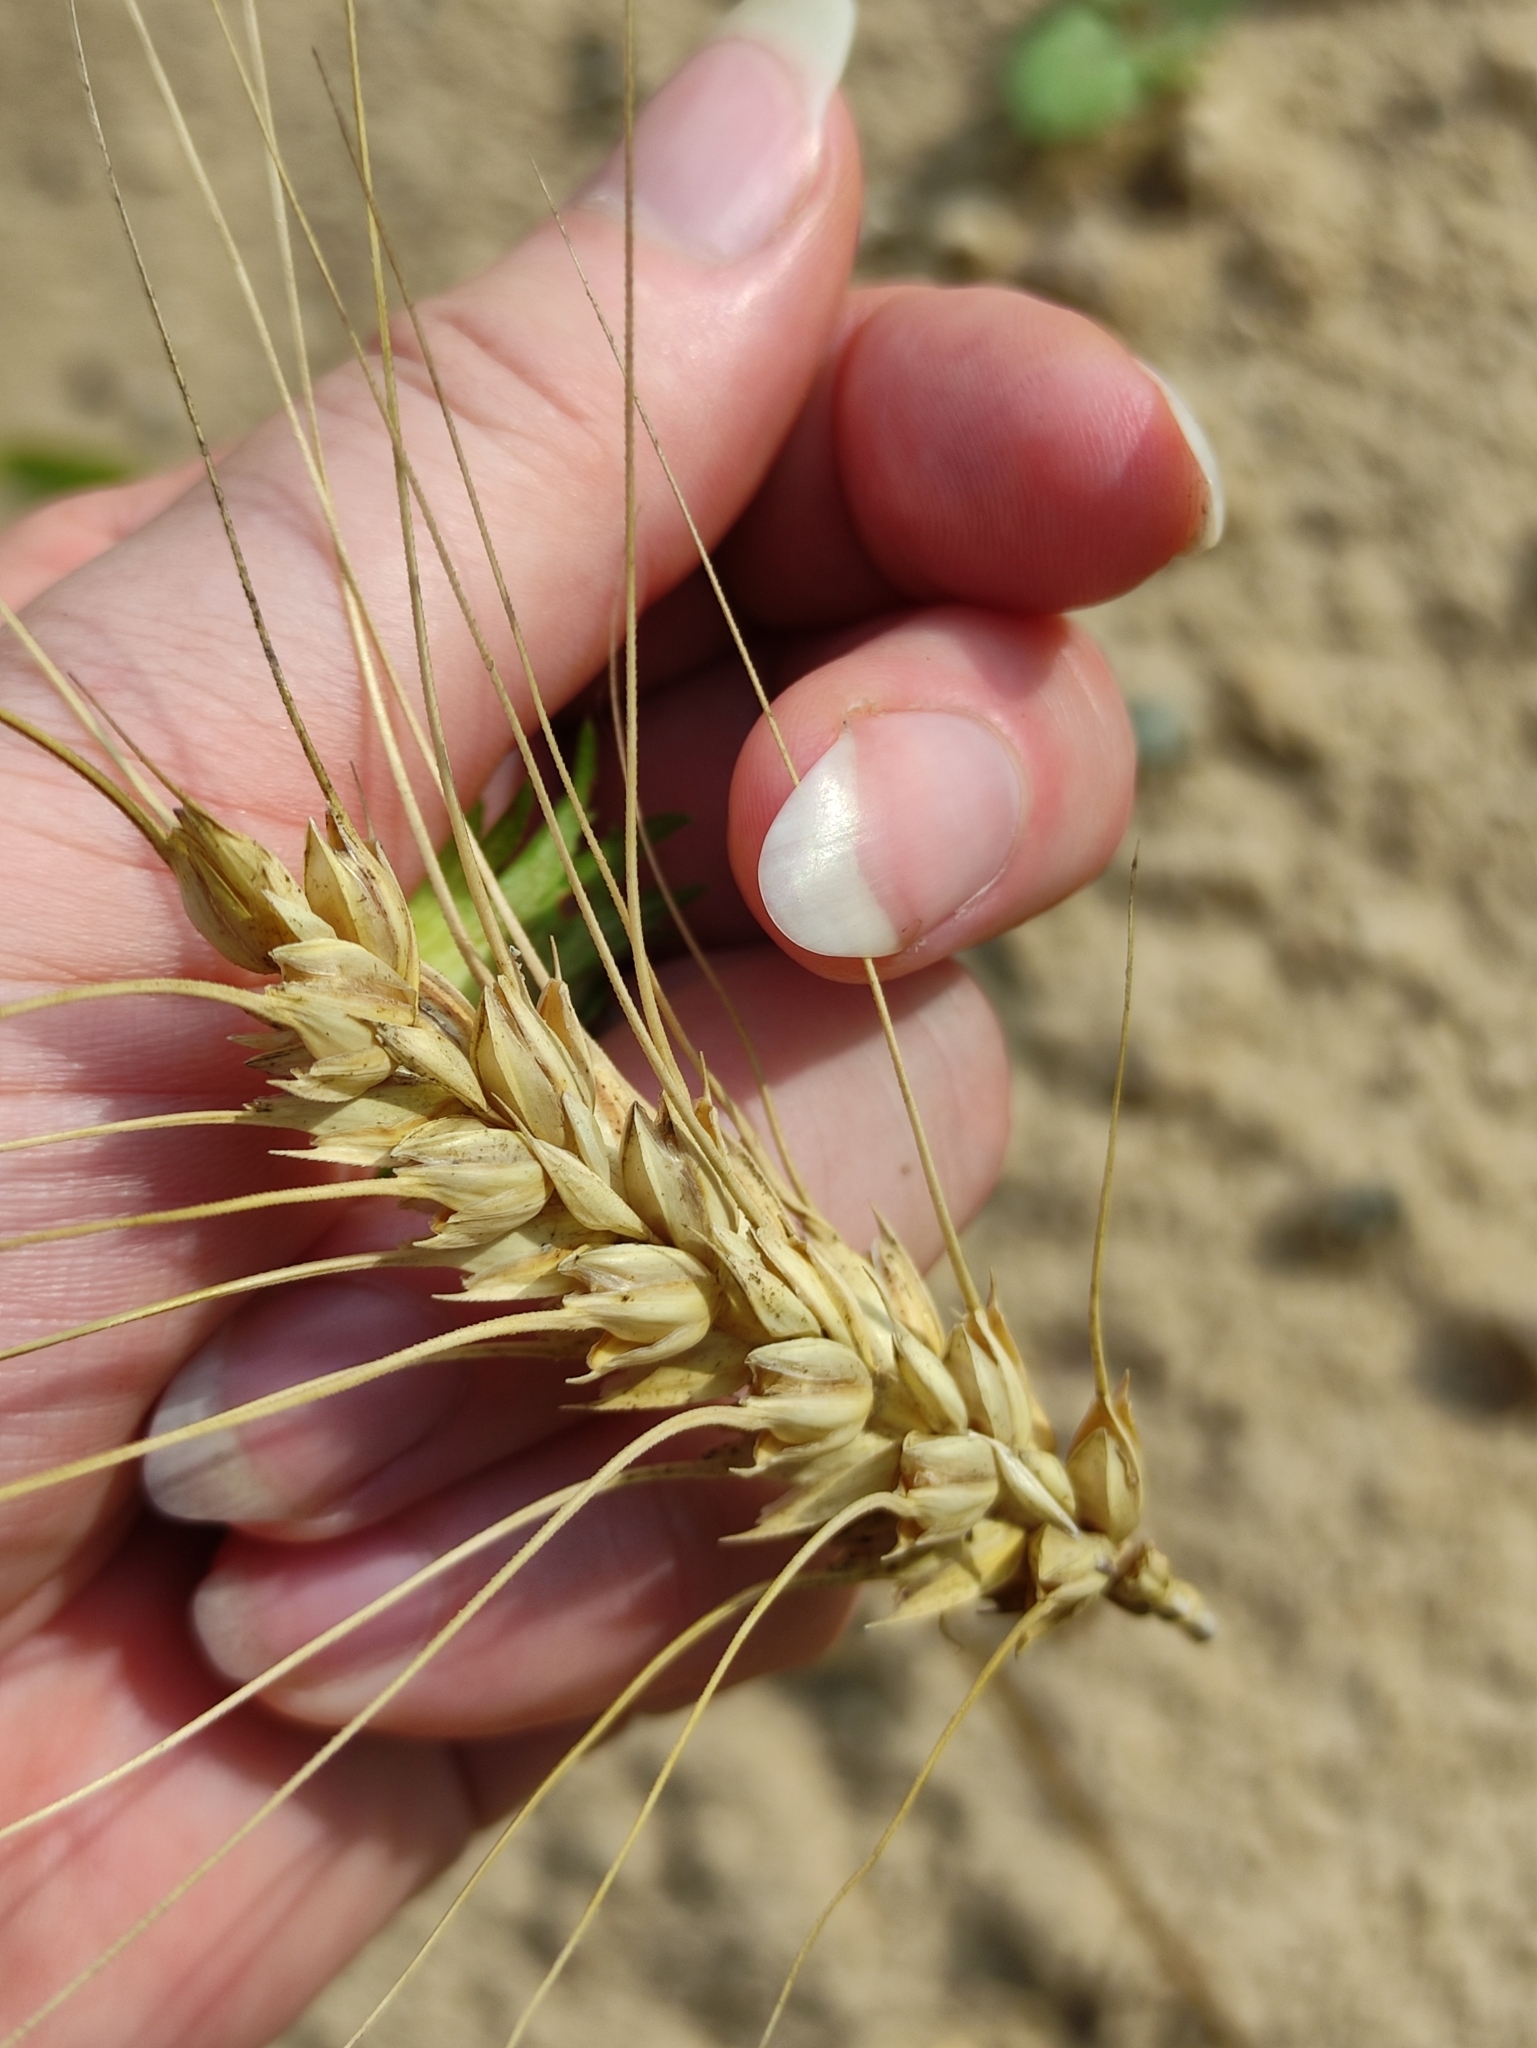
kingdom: Plantae
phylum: Tracheophyta
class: Liliopsida
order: Poales
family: Poaceae
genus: Triticum
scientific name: Triticum aestivum
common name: Common wheat
